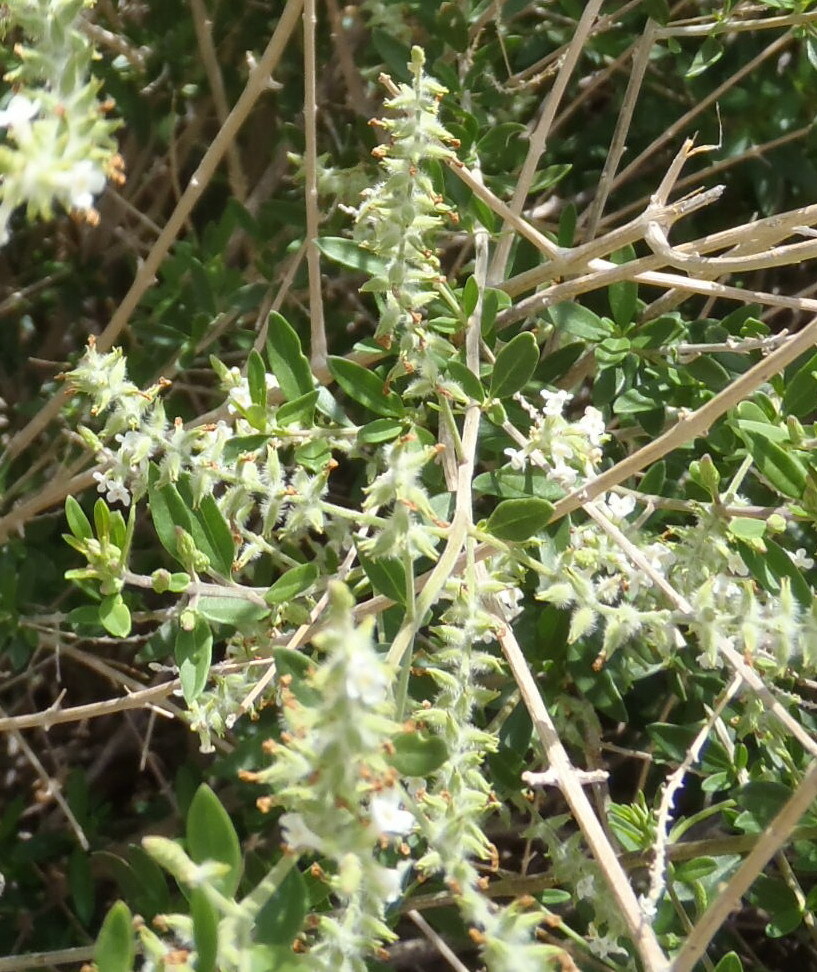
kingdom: Plantae
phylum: Tracheophyta
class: Magnoliopsida
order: Lamiales
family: Verbenaceae
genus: Aloysia
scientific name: Aloysia gratissima
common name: Common bee-brush
